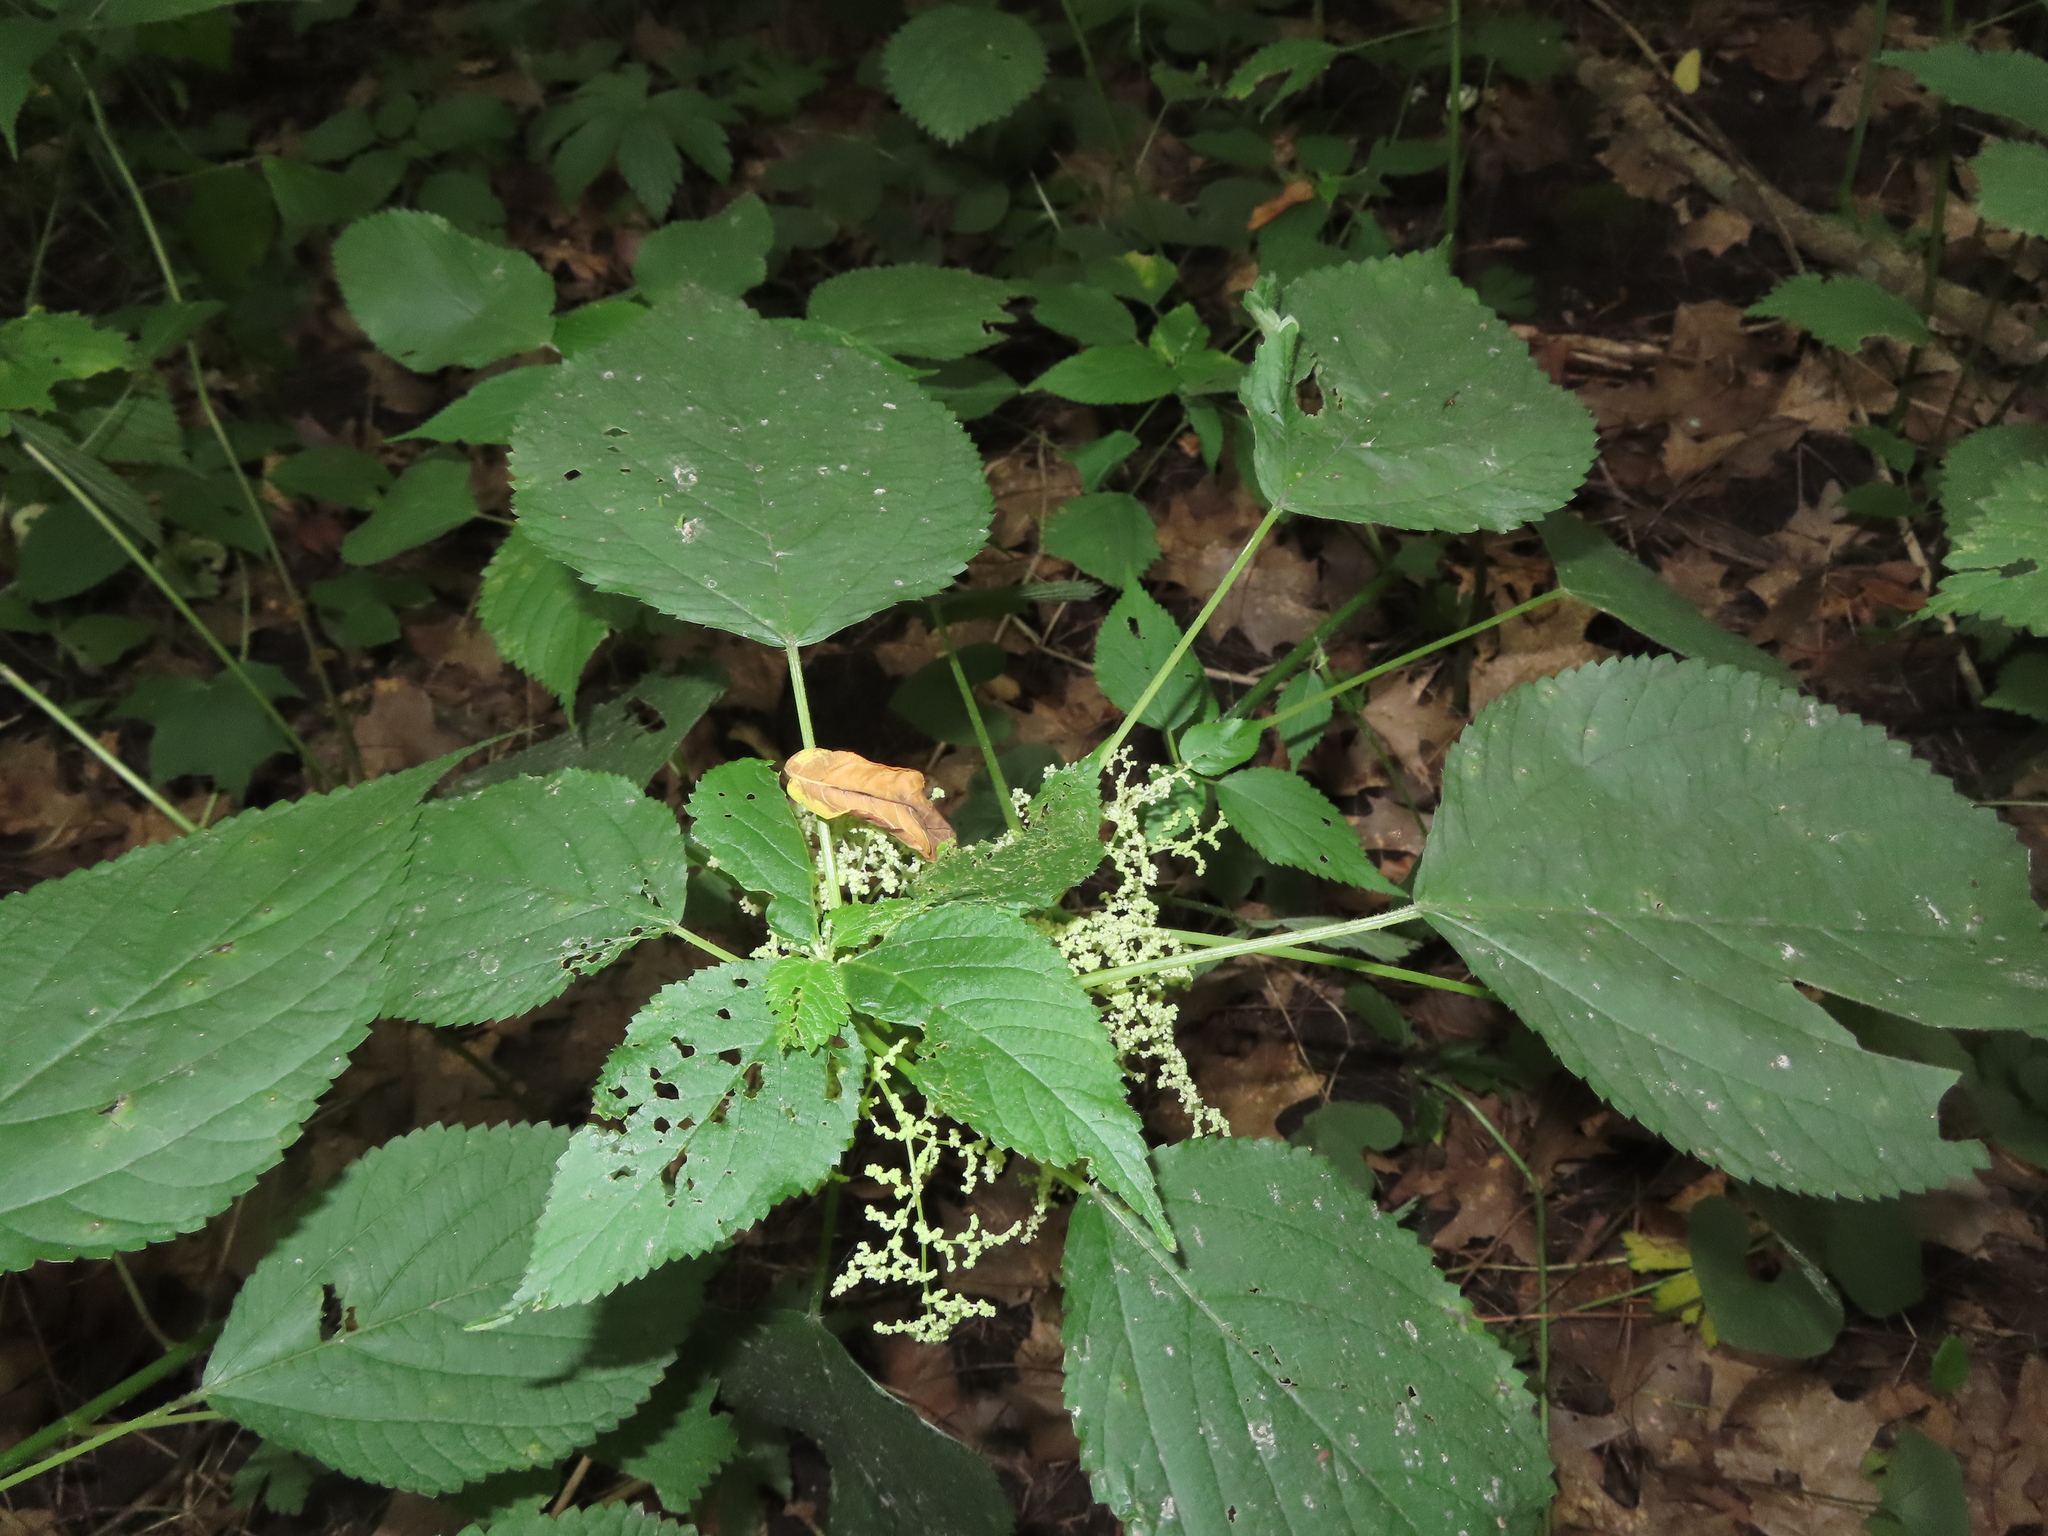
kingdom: Plantae
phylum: Tracheophyta
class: Magnoliopsida
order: Rosales
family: Urticaceae
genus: Laportea
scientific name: Laportea canadensis
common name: Canada nettle
